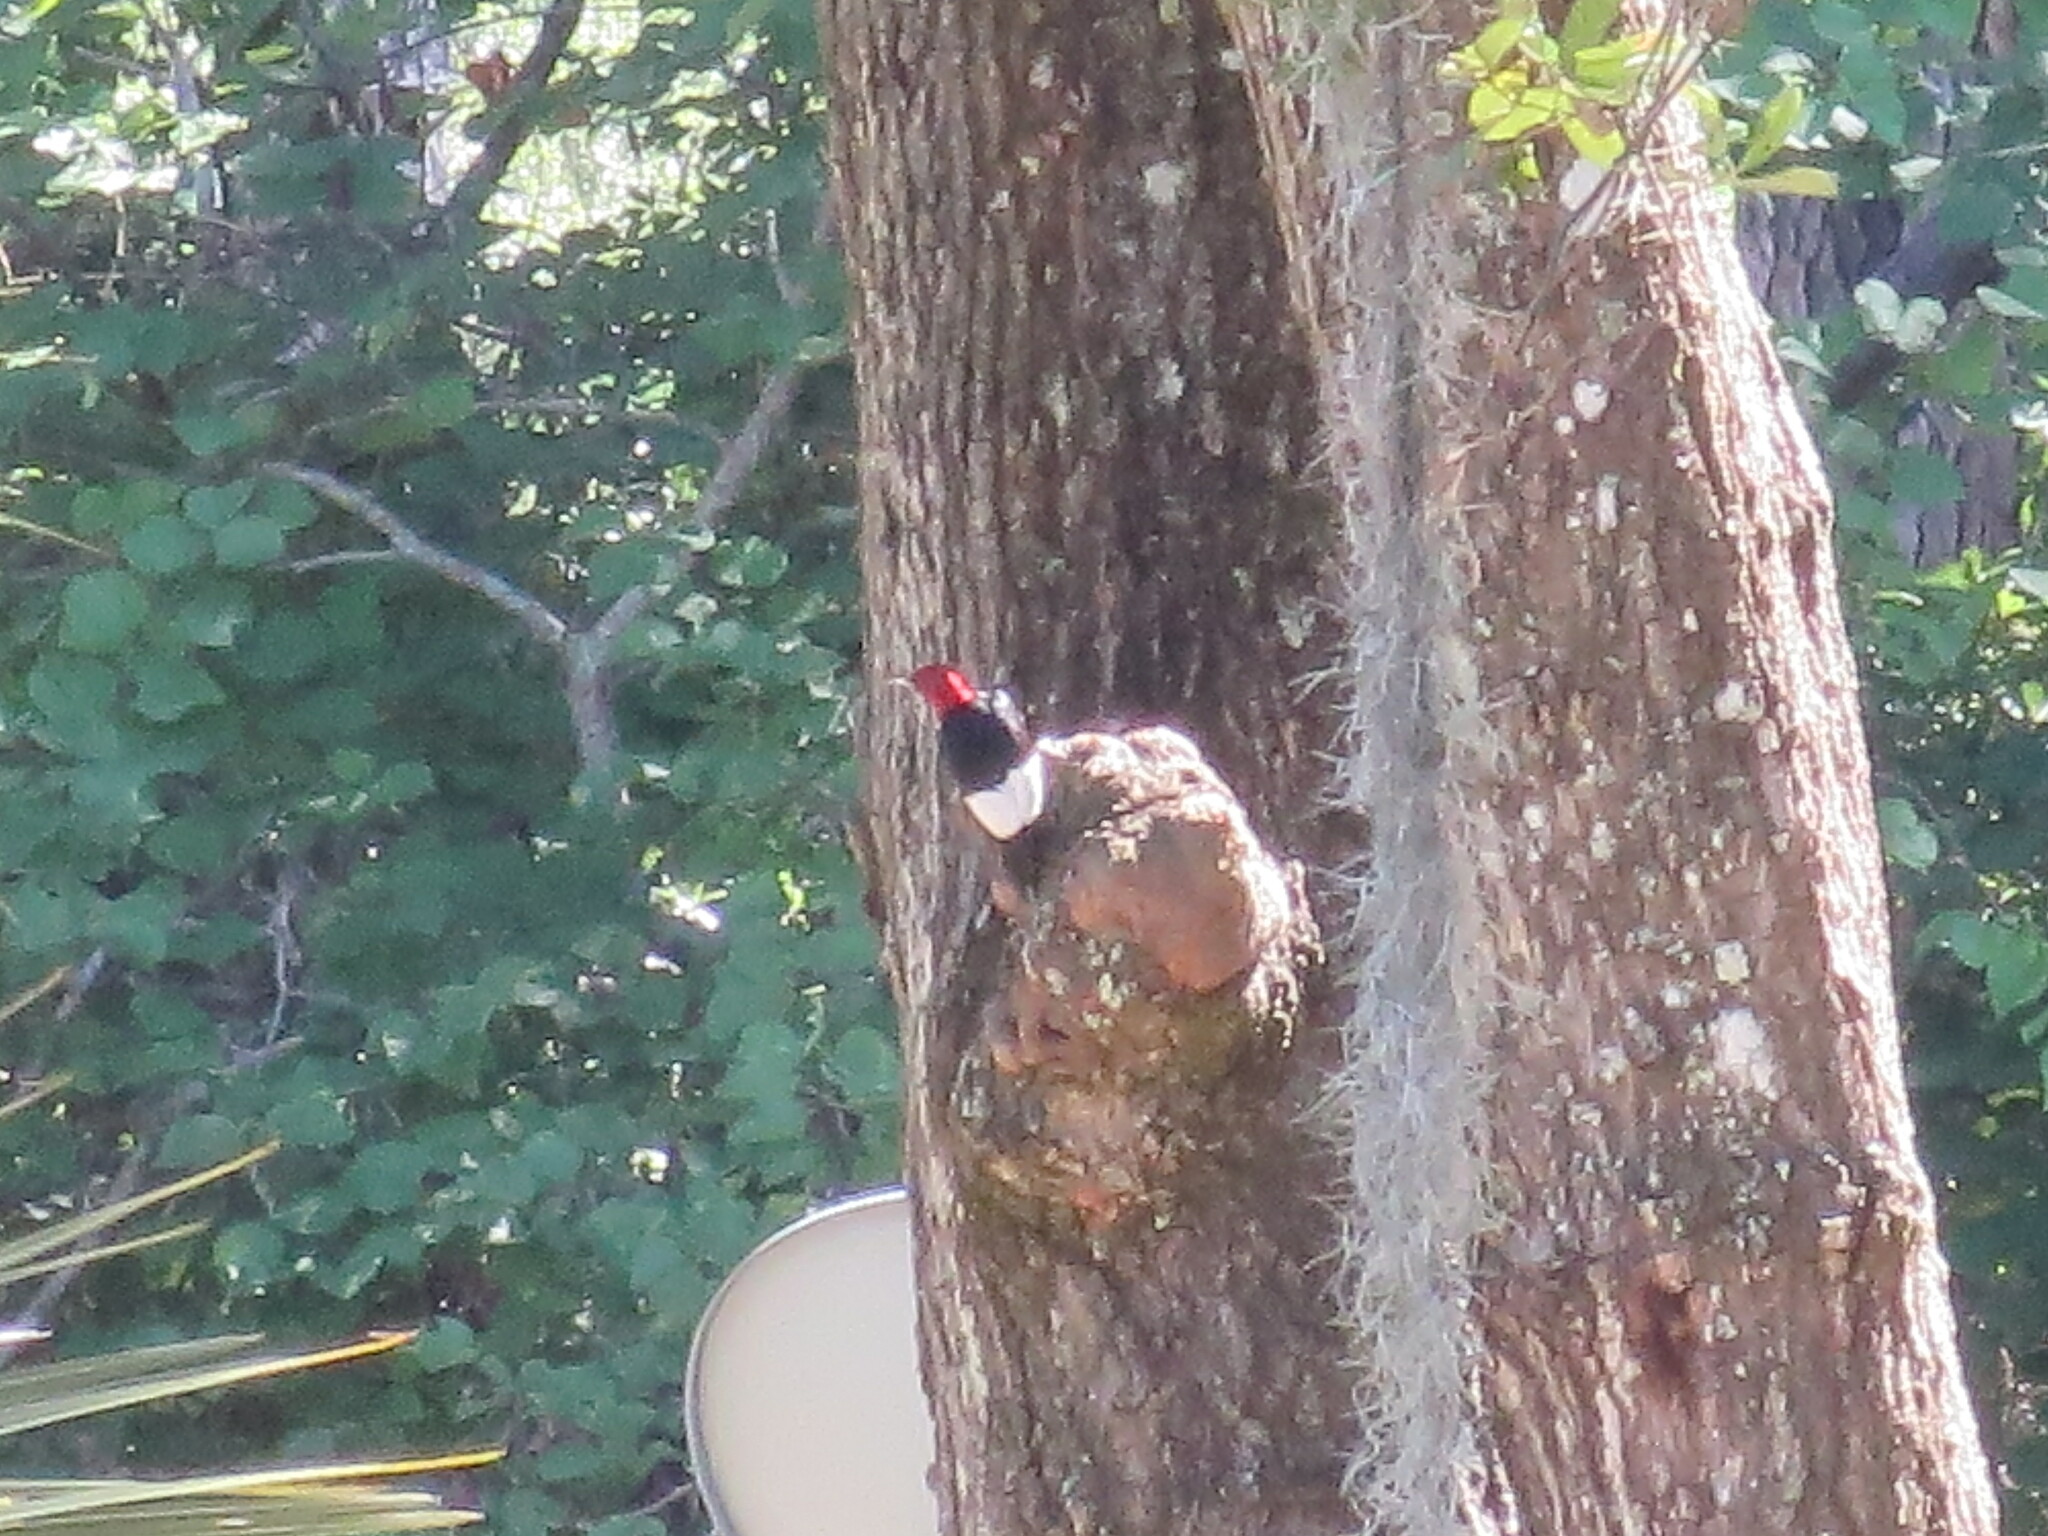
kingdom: Animalia
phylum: Chordata
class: Aves
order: Piciformes
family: Picidae
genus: Melanerpes
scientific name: Melanerpes erythrocephalus
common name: Red-headed woodpecker
